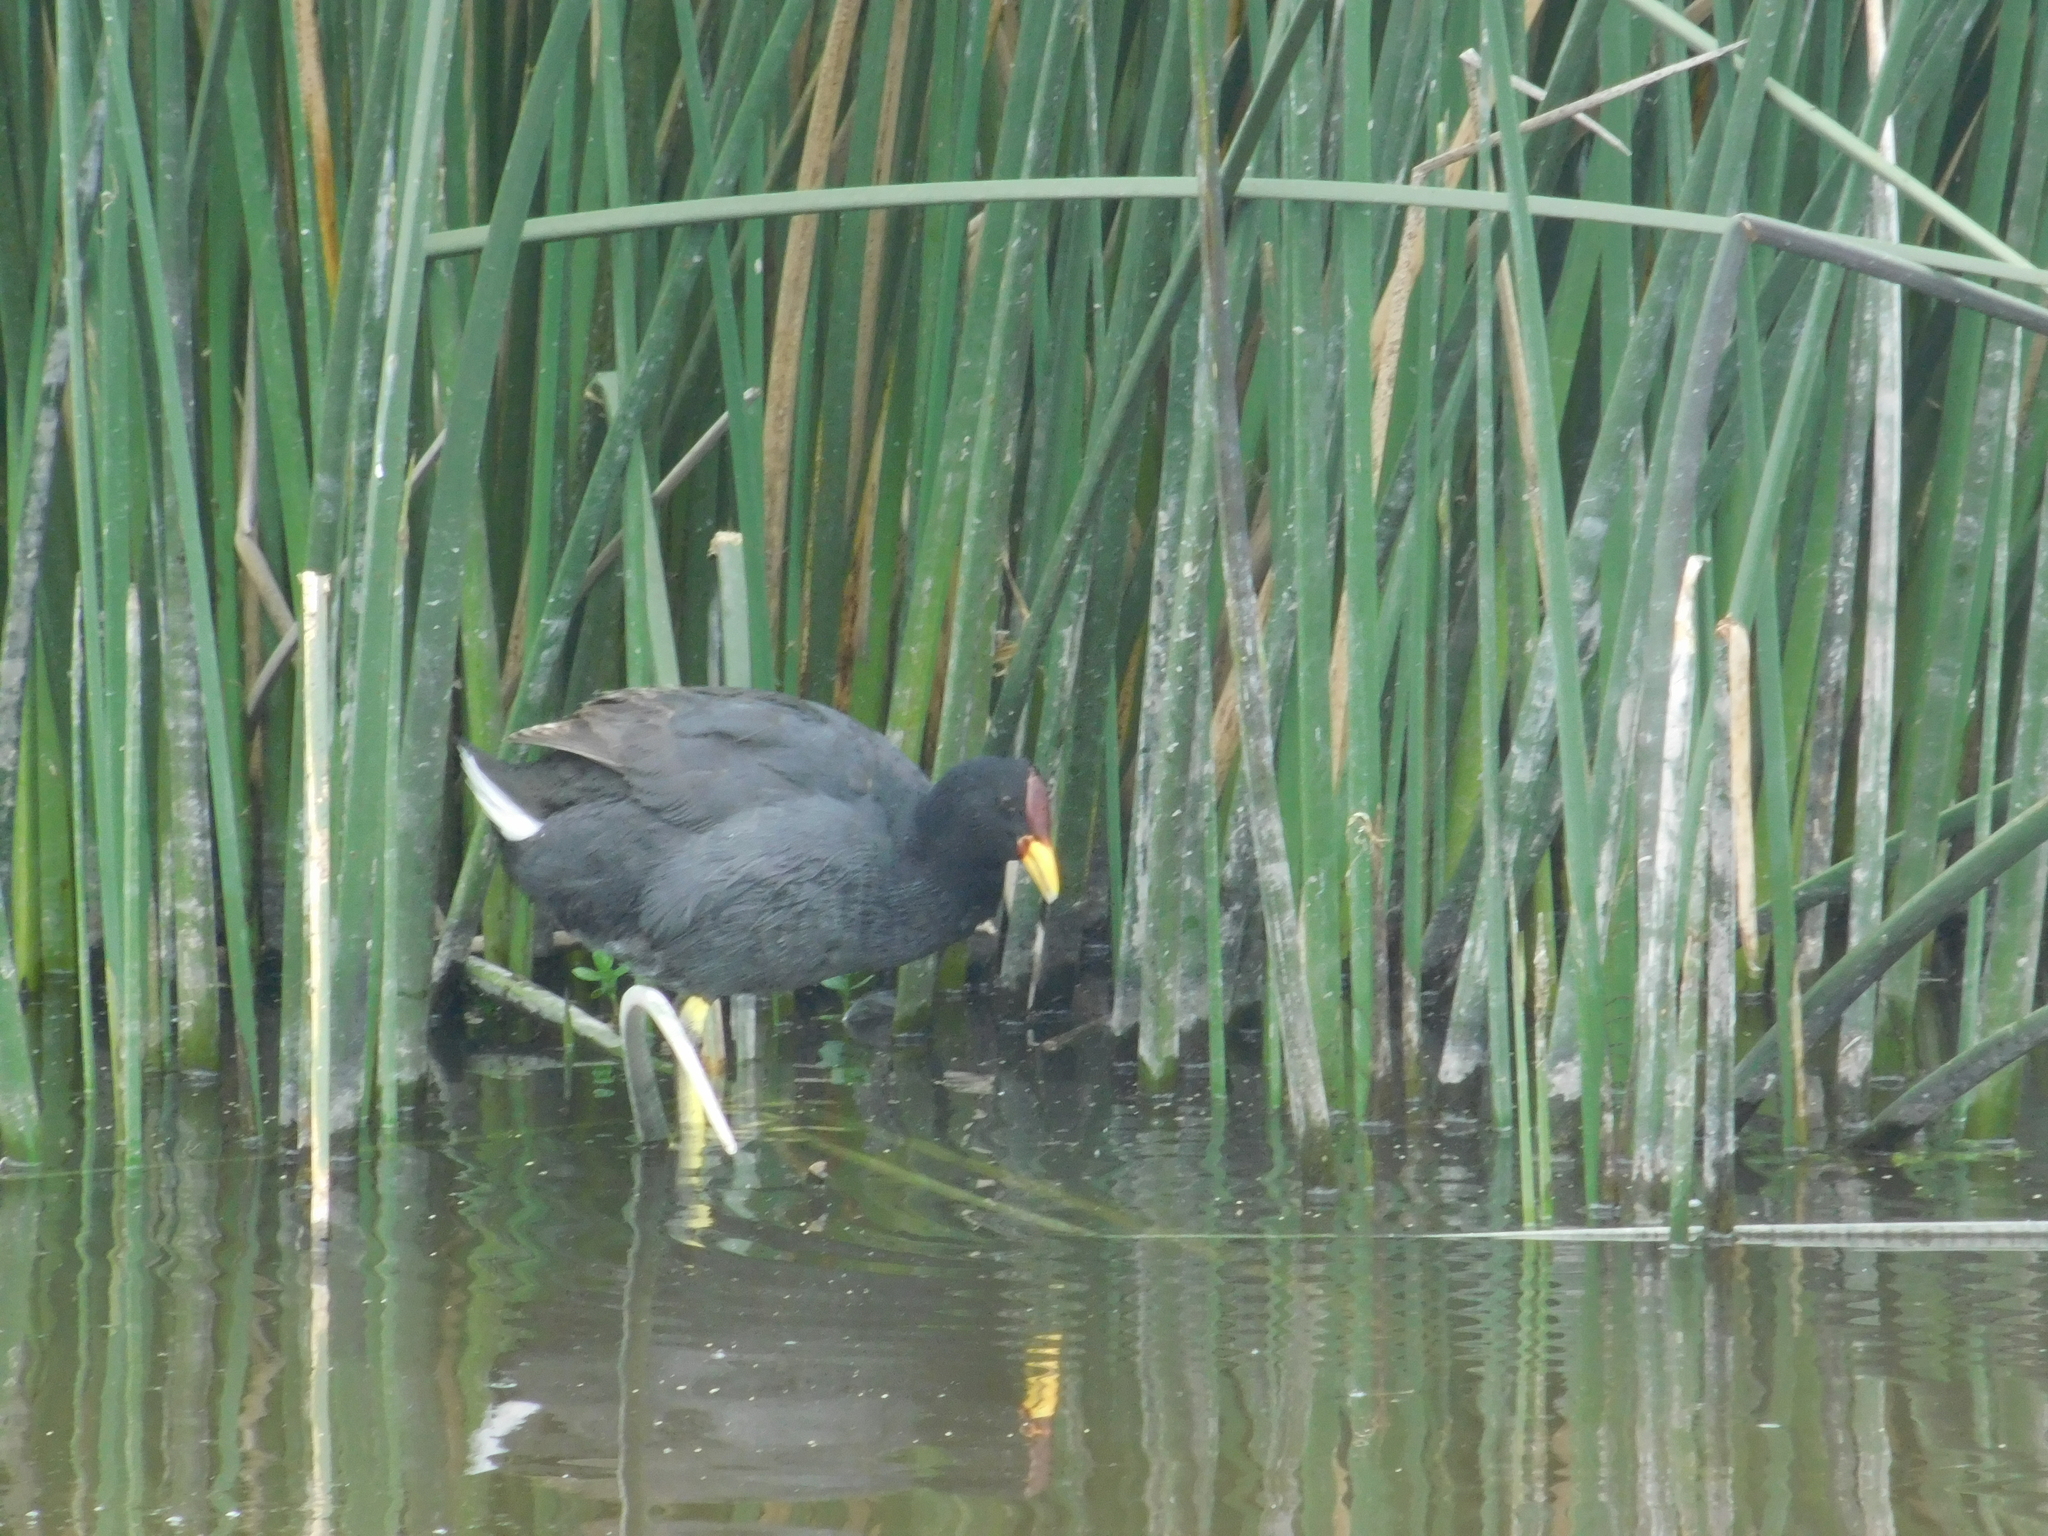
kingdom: Animalia
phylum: Chordata
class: Aves
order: Gruiformes
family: Rallidae
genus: Fulica
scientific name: Fulica rufifrons
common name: Red-fronted coot
